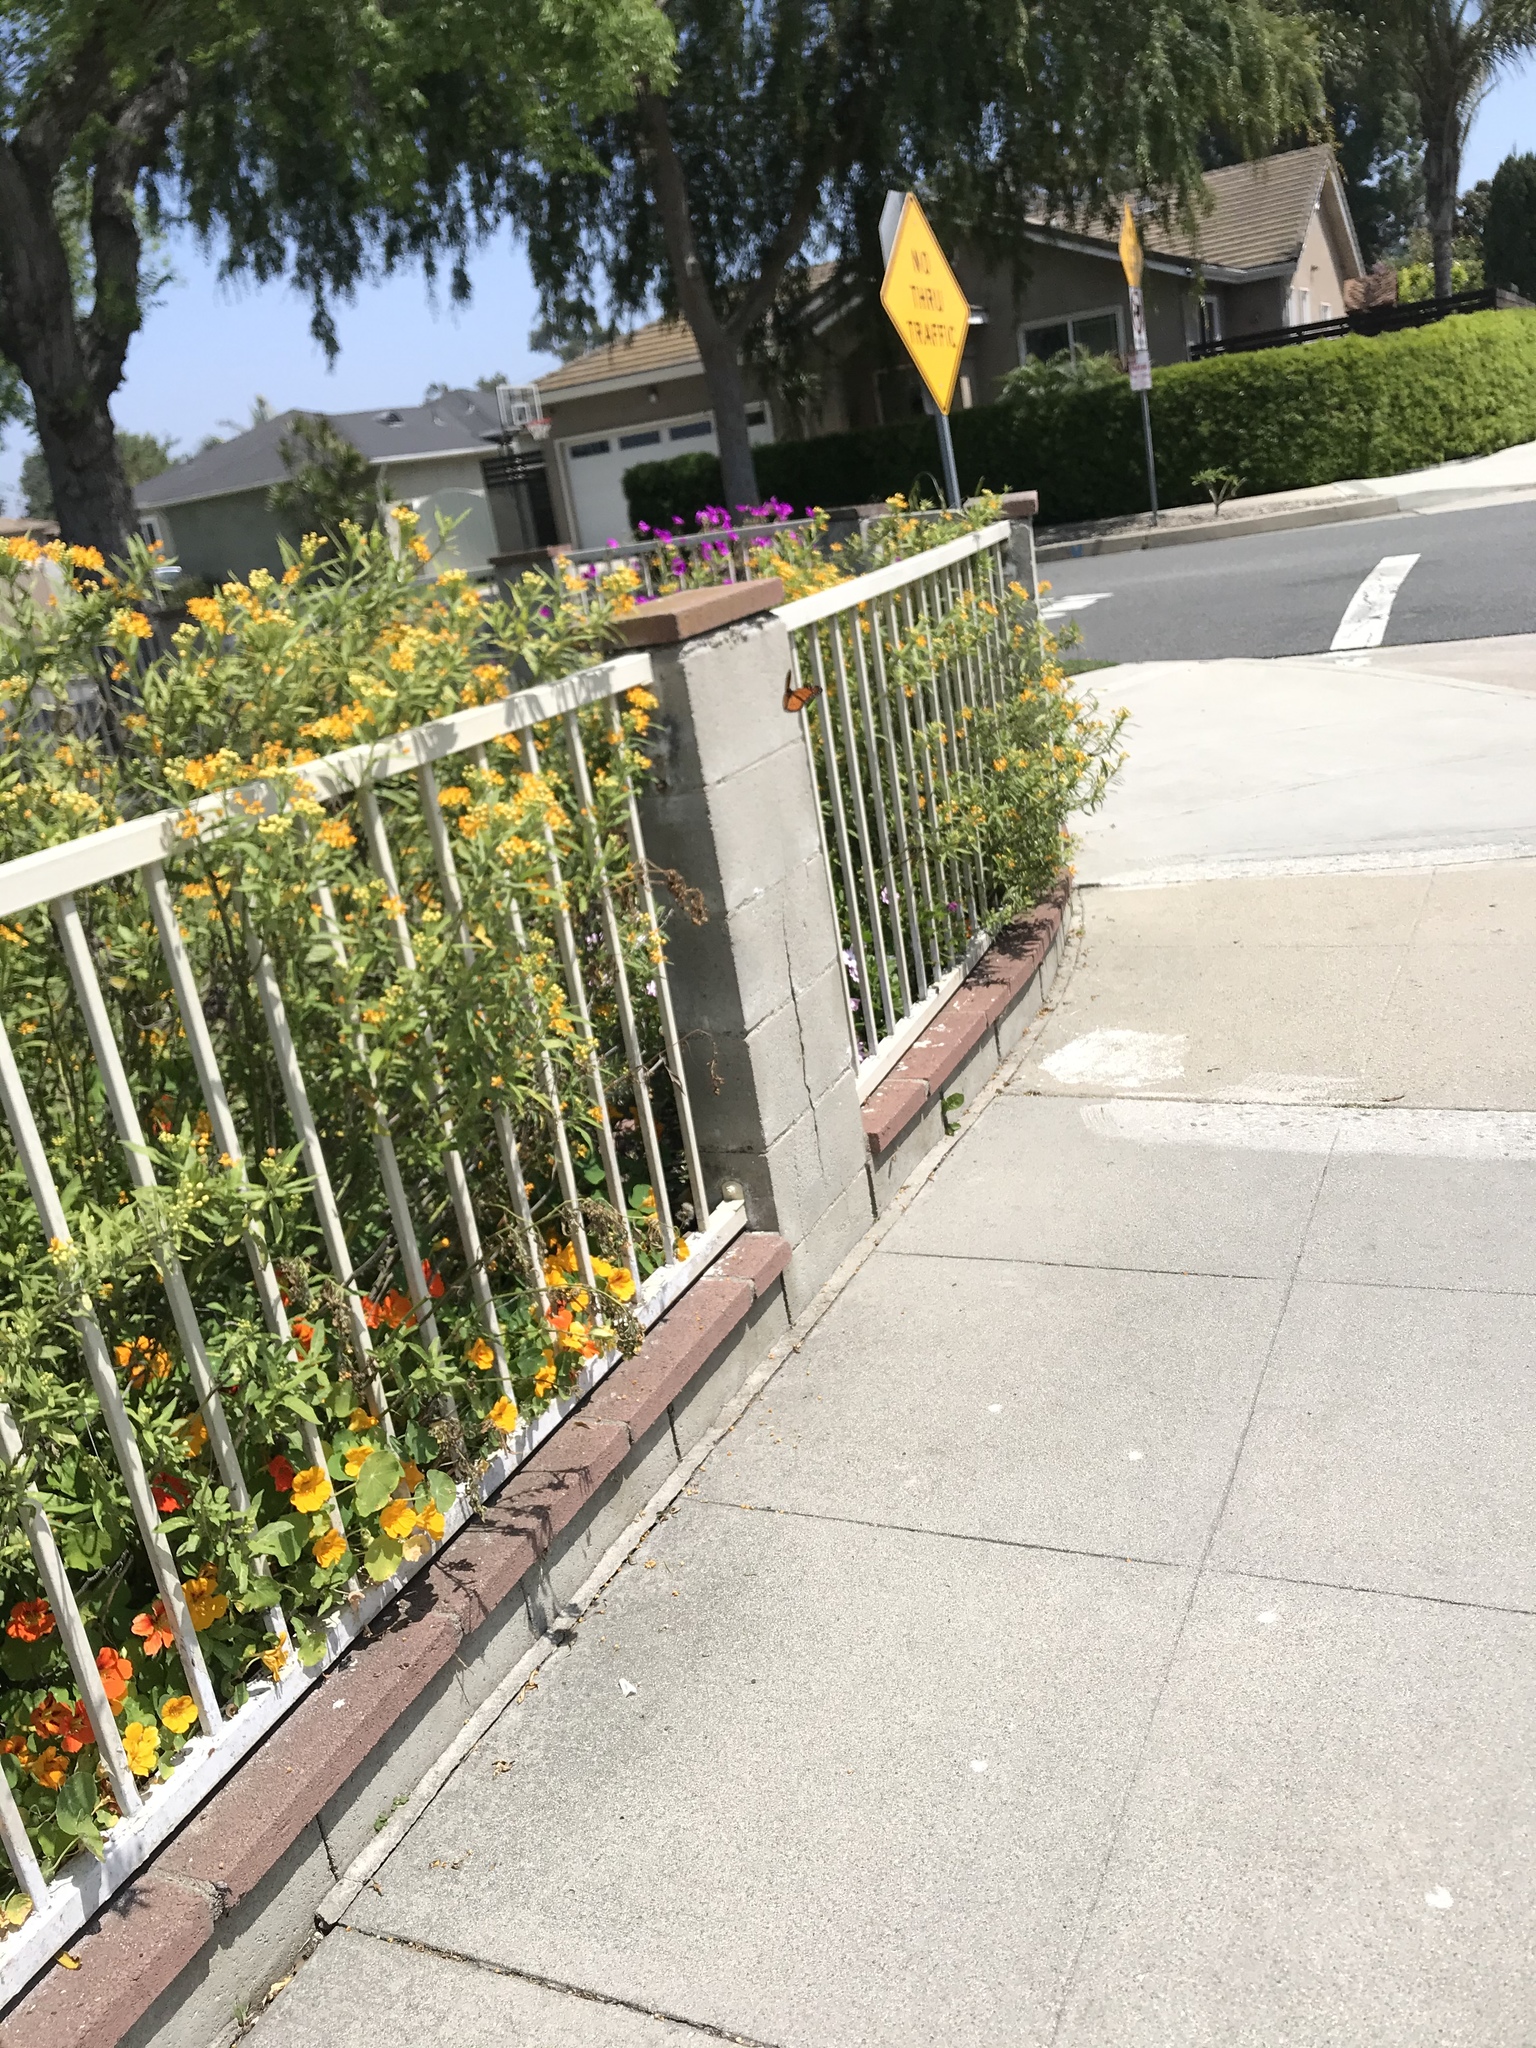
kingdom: Animalia
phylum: Arthropoda
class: Insecta
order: Lepidoptera
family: Nymphalidae
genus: Danaus
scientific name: Danaus plexippus
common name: Monarch
